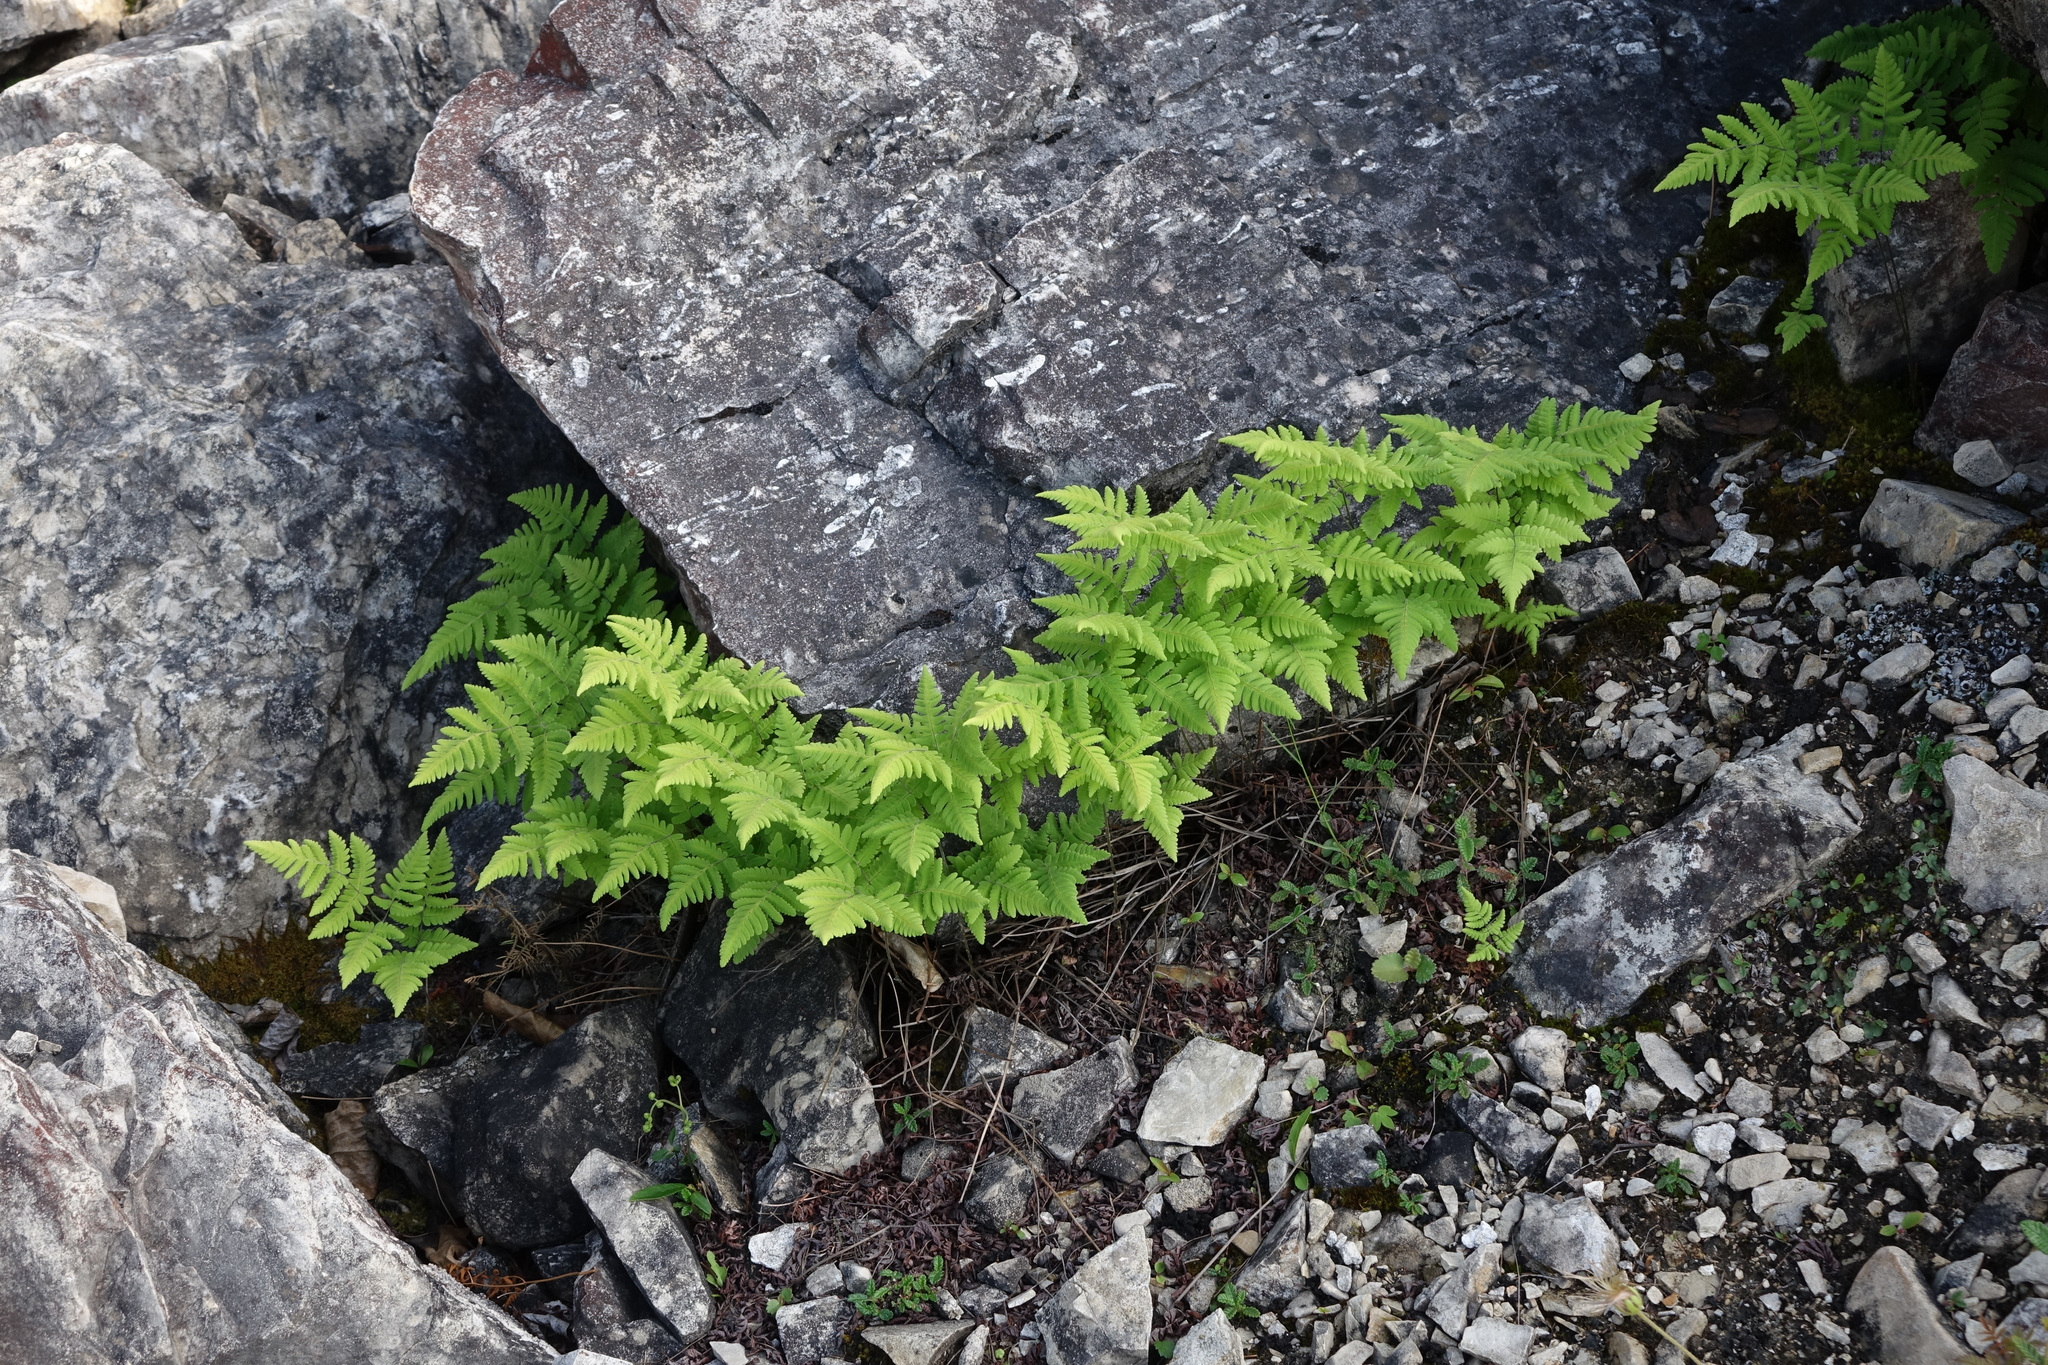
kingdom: Plantae
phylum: Tracheophyta
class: Polypodiopsida
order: Polypodiales
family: Cystopteridaceae
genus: Gymnocarpium
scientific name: Gymnocarpium jessoense
